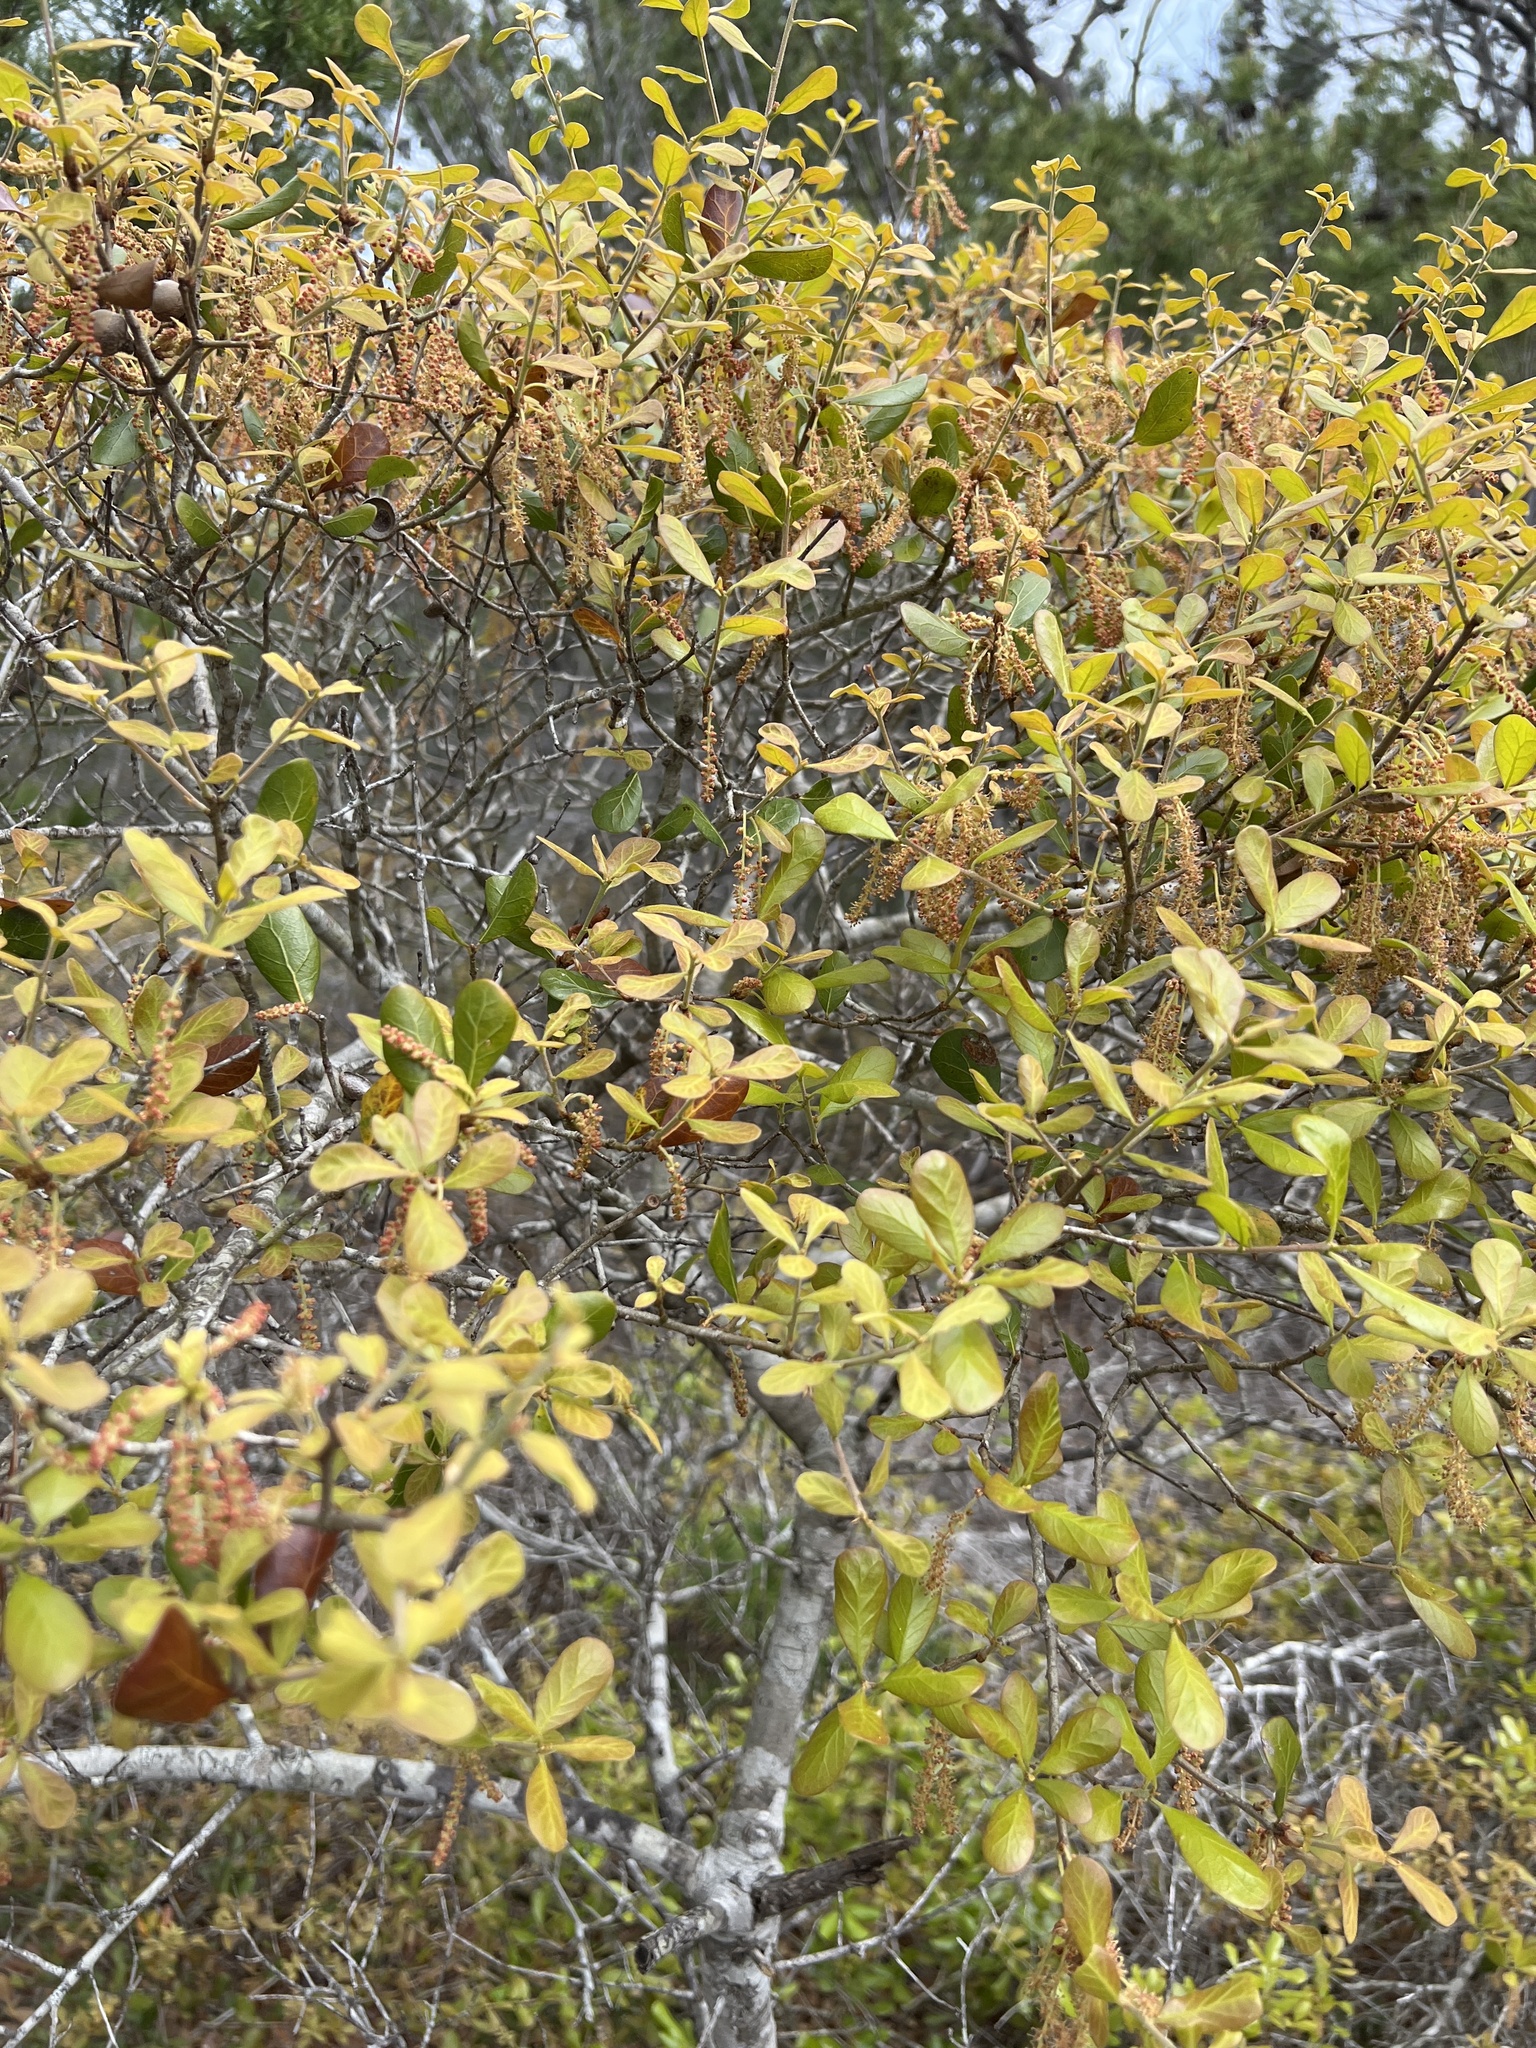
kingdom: Plantae
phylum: Tracheophyta
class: Magnoliopsida
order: Fagales
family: Fagaceae
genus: Quercus
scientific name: Quercus myrtifolia
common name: Myrtle oak
